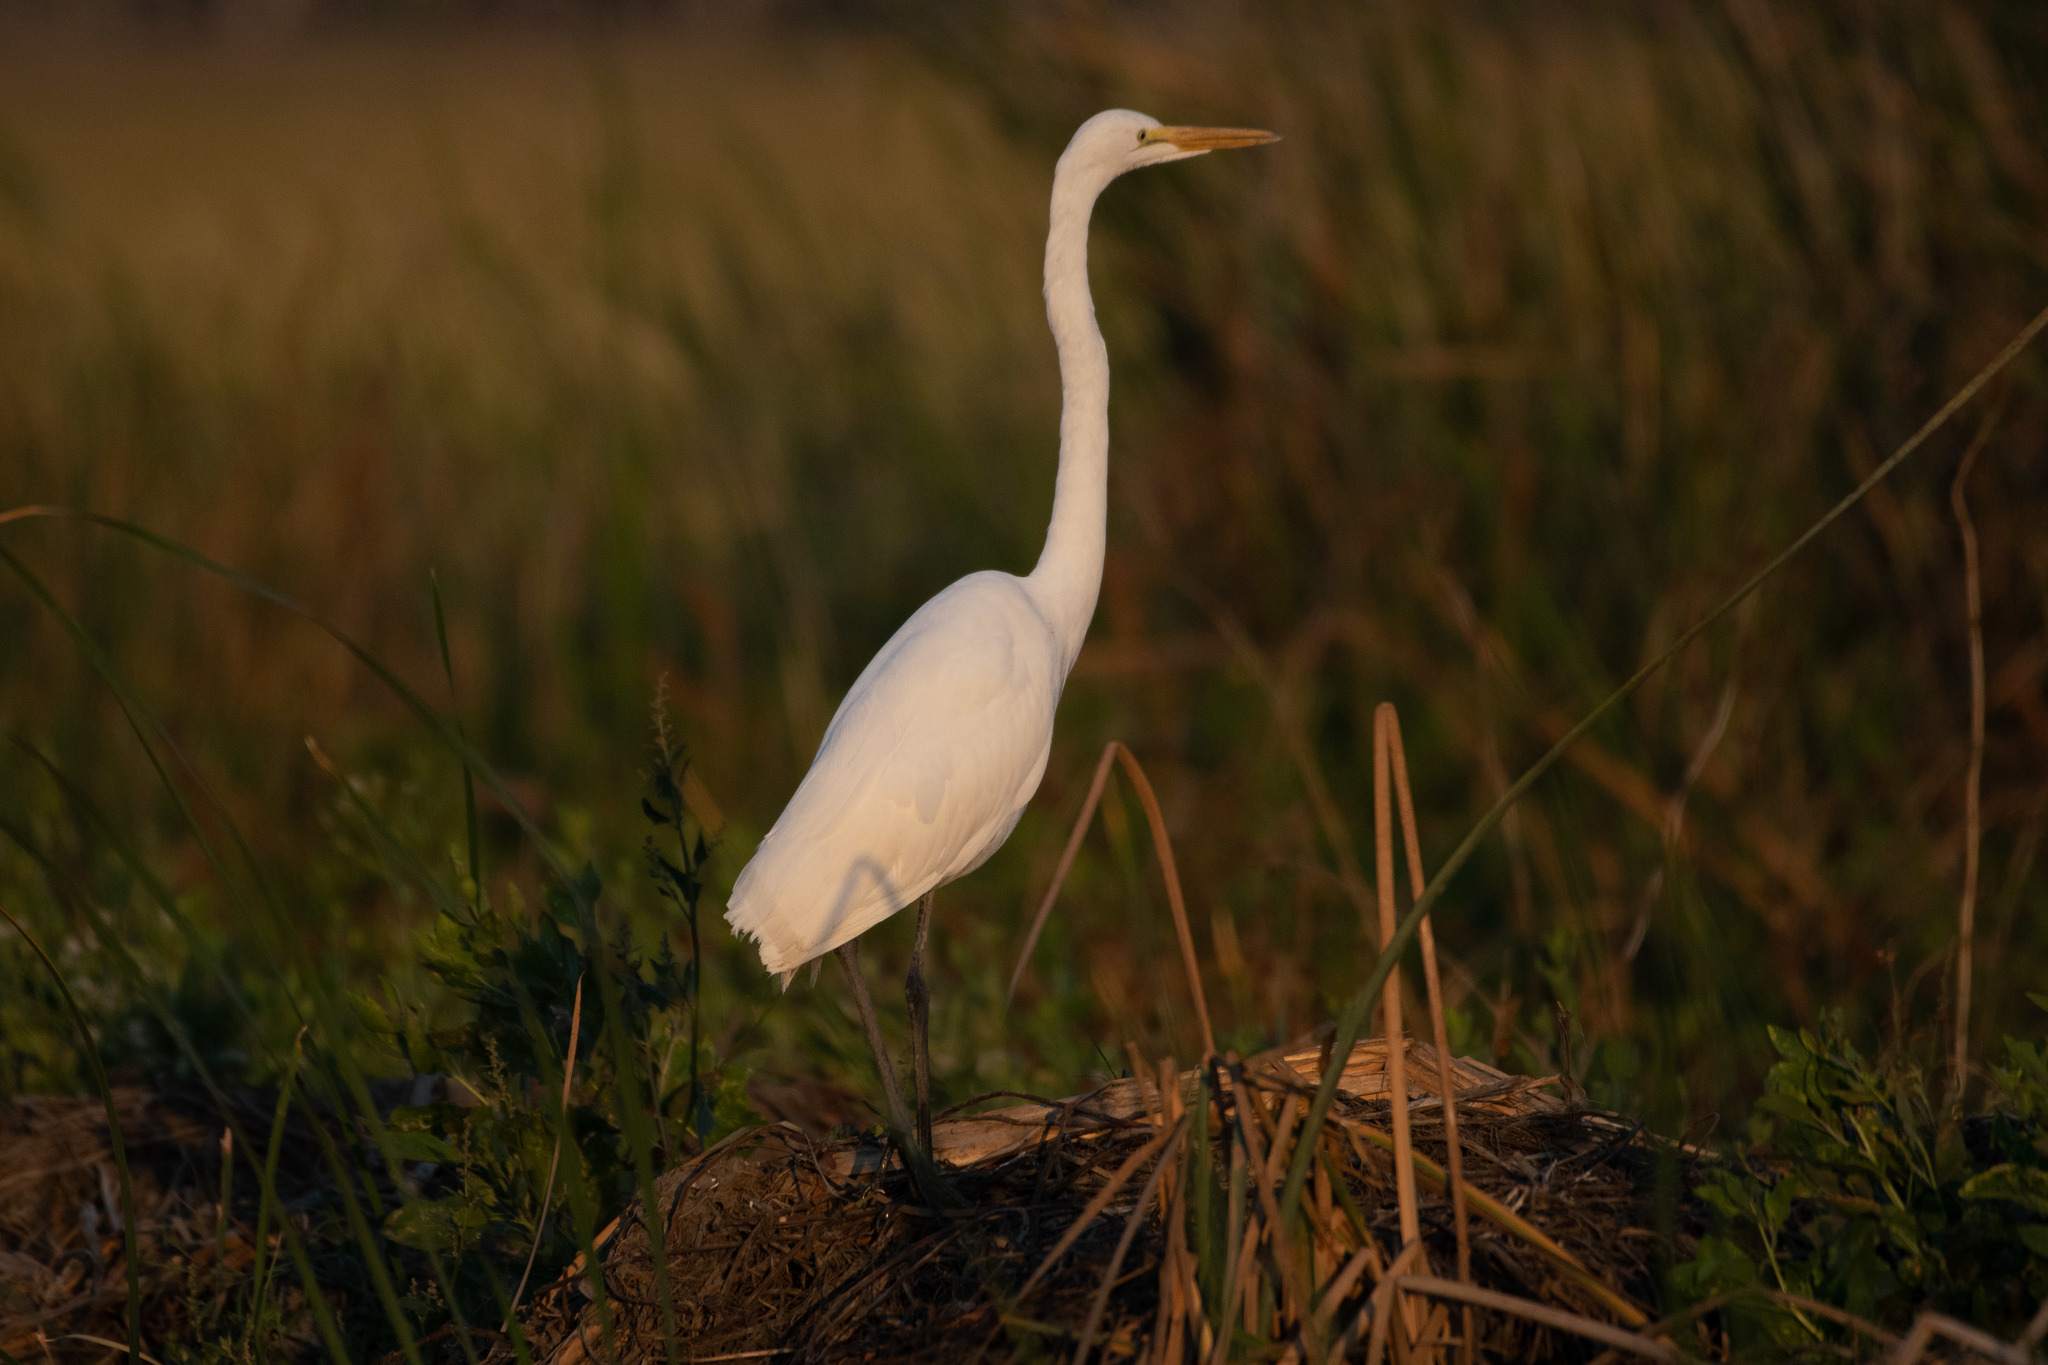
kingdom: Animalia
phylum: Chordata
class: Aves
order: Pelecaniformes
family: Ardeidae
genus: Ardea
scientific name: Ardea alba
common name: Great egret
